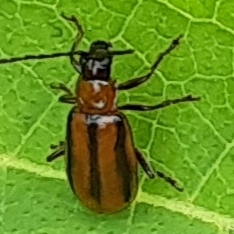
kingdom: Animalia
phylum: Arthropoda
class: Insecta
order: Coleoptera
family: Chrysomelidae
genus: Diabrotica
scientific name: Diabrotica virgifera
